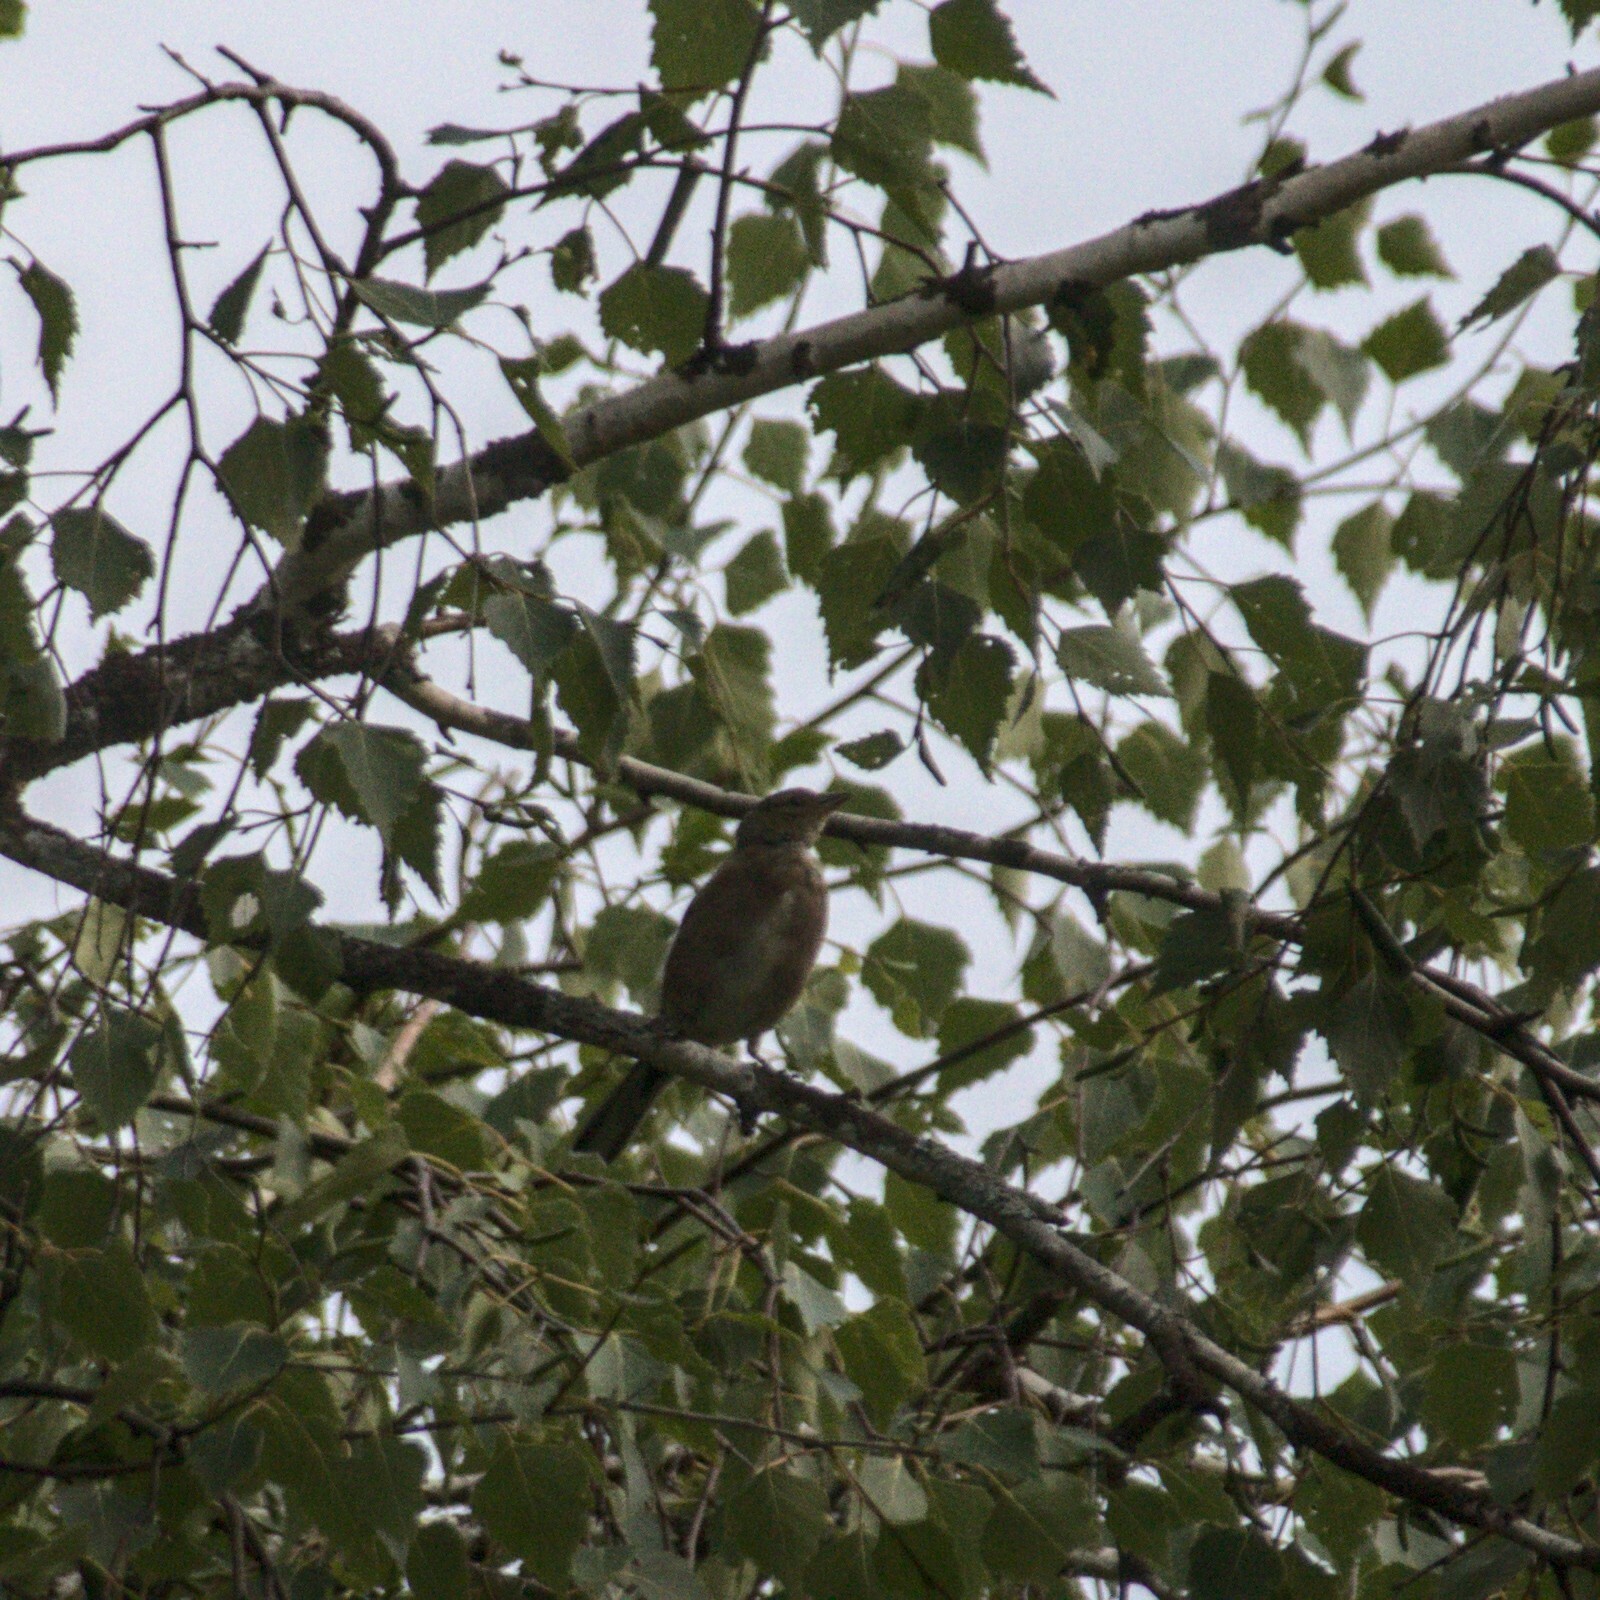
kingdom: Animalia
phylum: Chordata
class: Aves
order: Passeriformes
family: Fringillidae
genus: Linaria
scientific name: Linaria cannabina
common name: Common linnet
